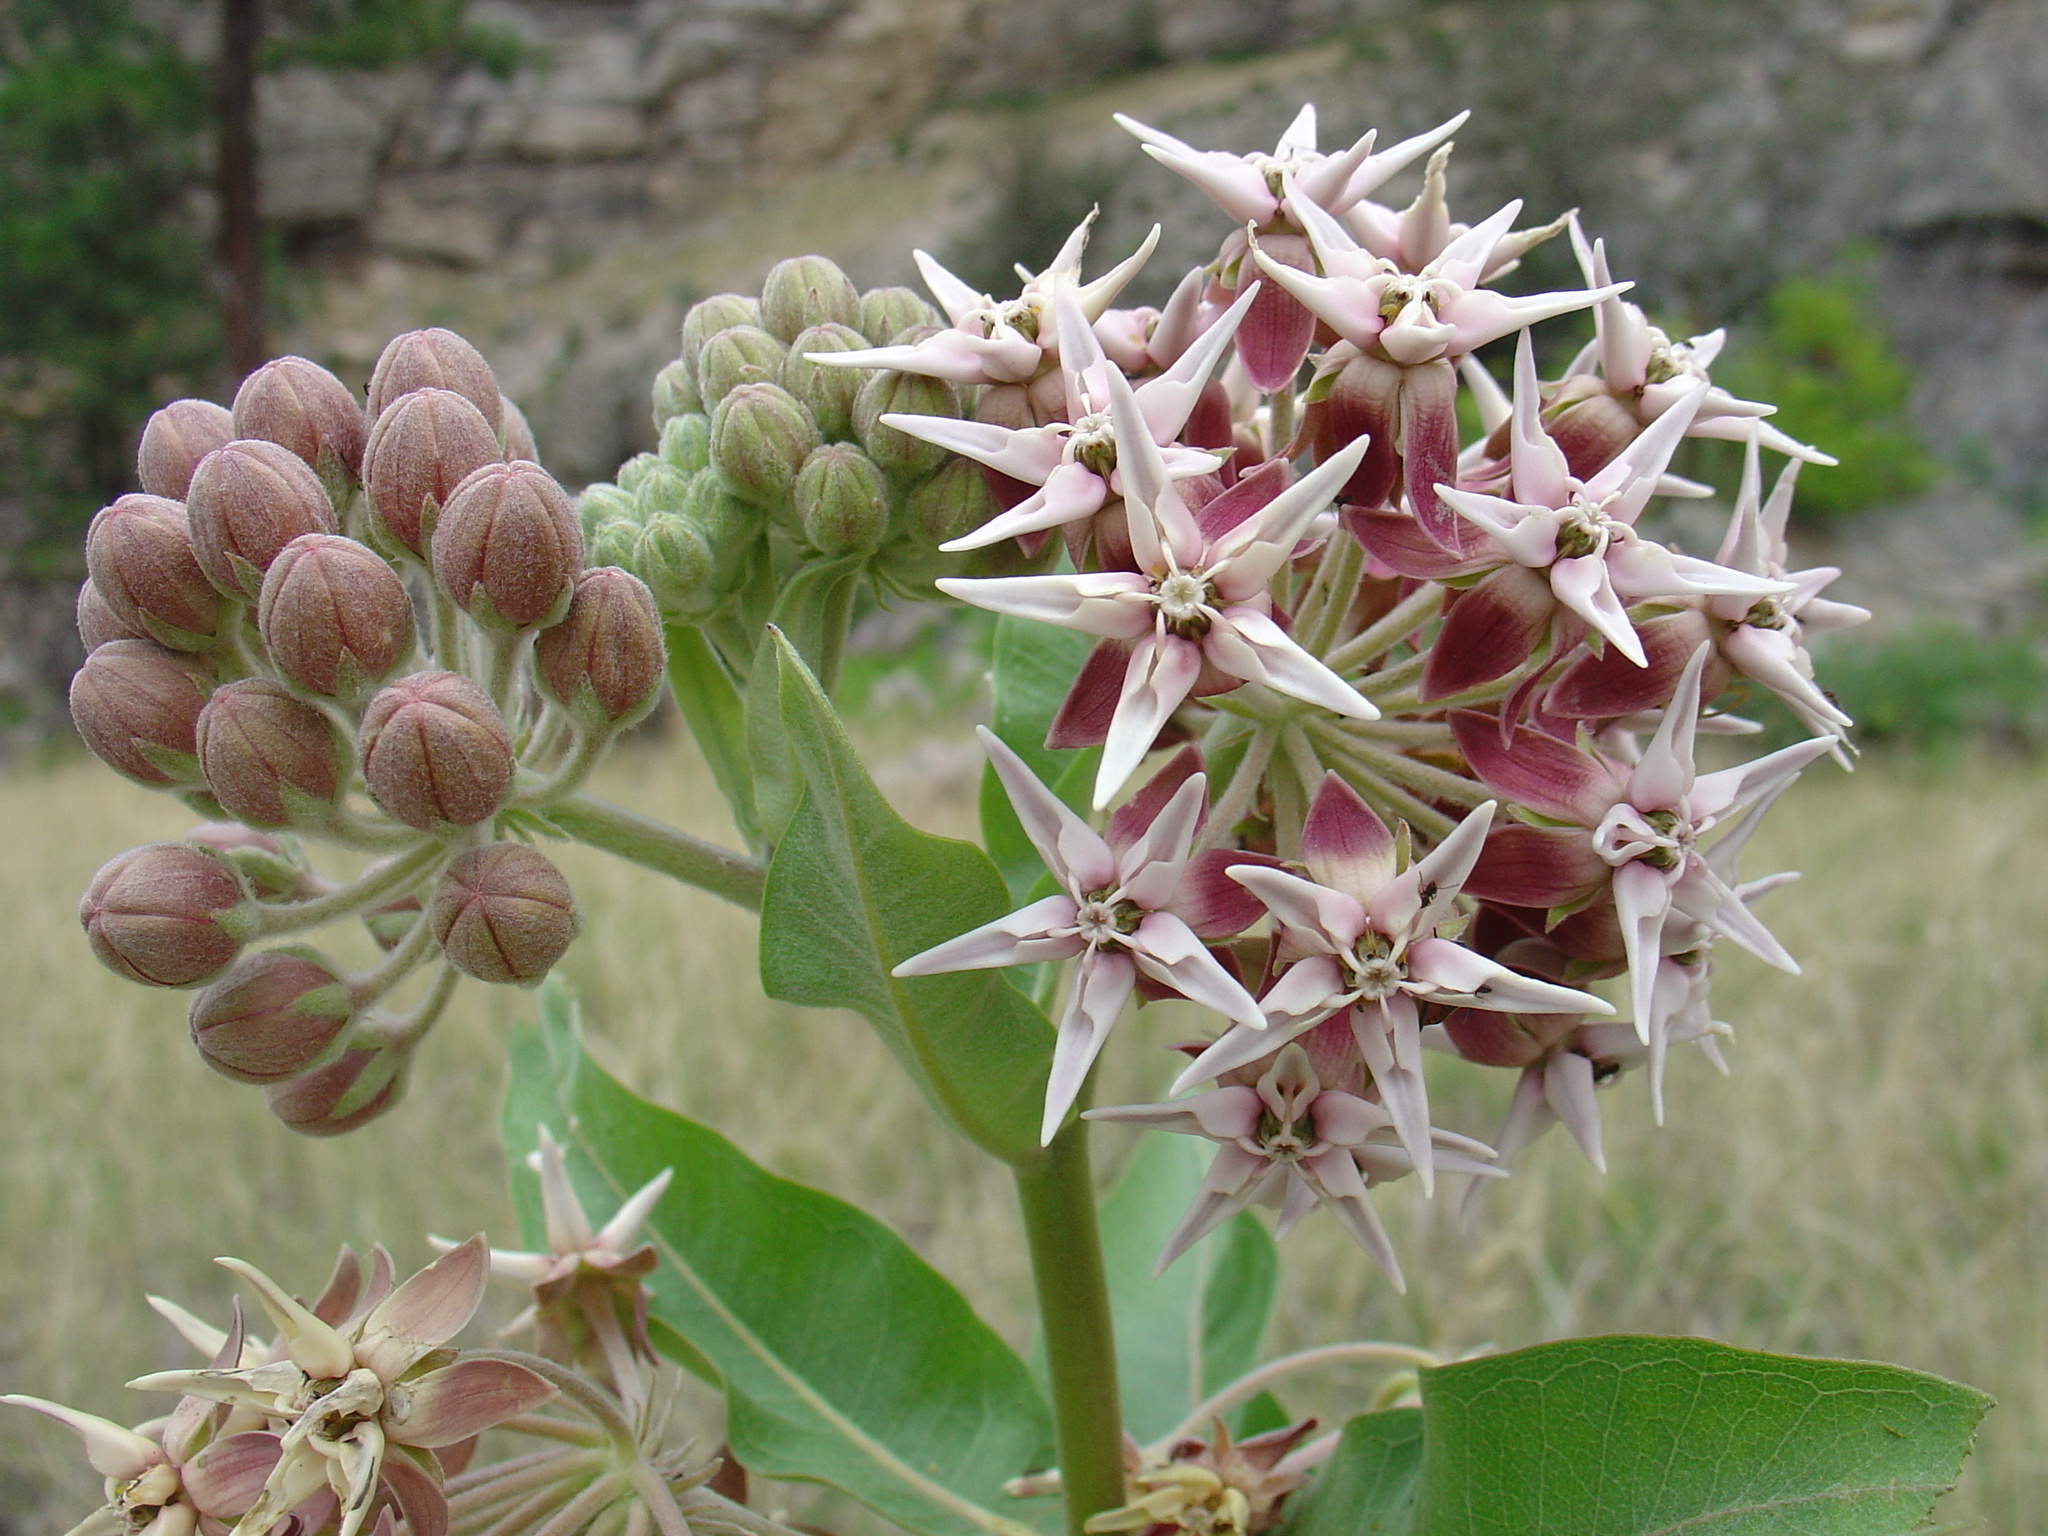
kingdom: Plantae
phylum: Tracheophyta
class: Magnoliopsida
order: Gentianales
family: Apocynaceae
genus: Asclepias
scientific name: Asclepias speciosa
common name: Showy milkweed
